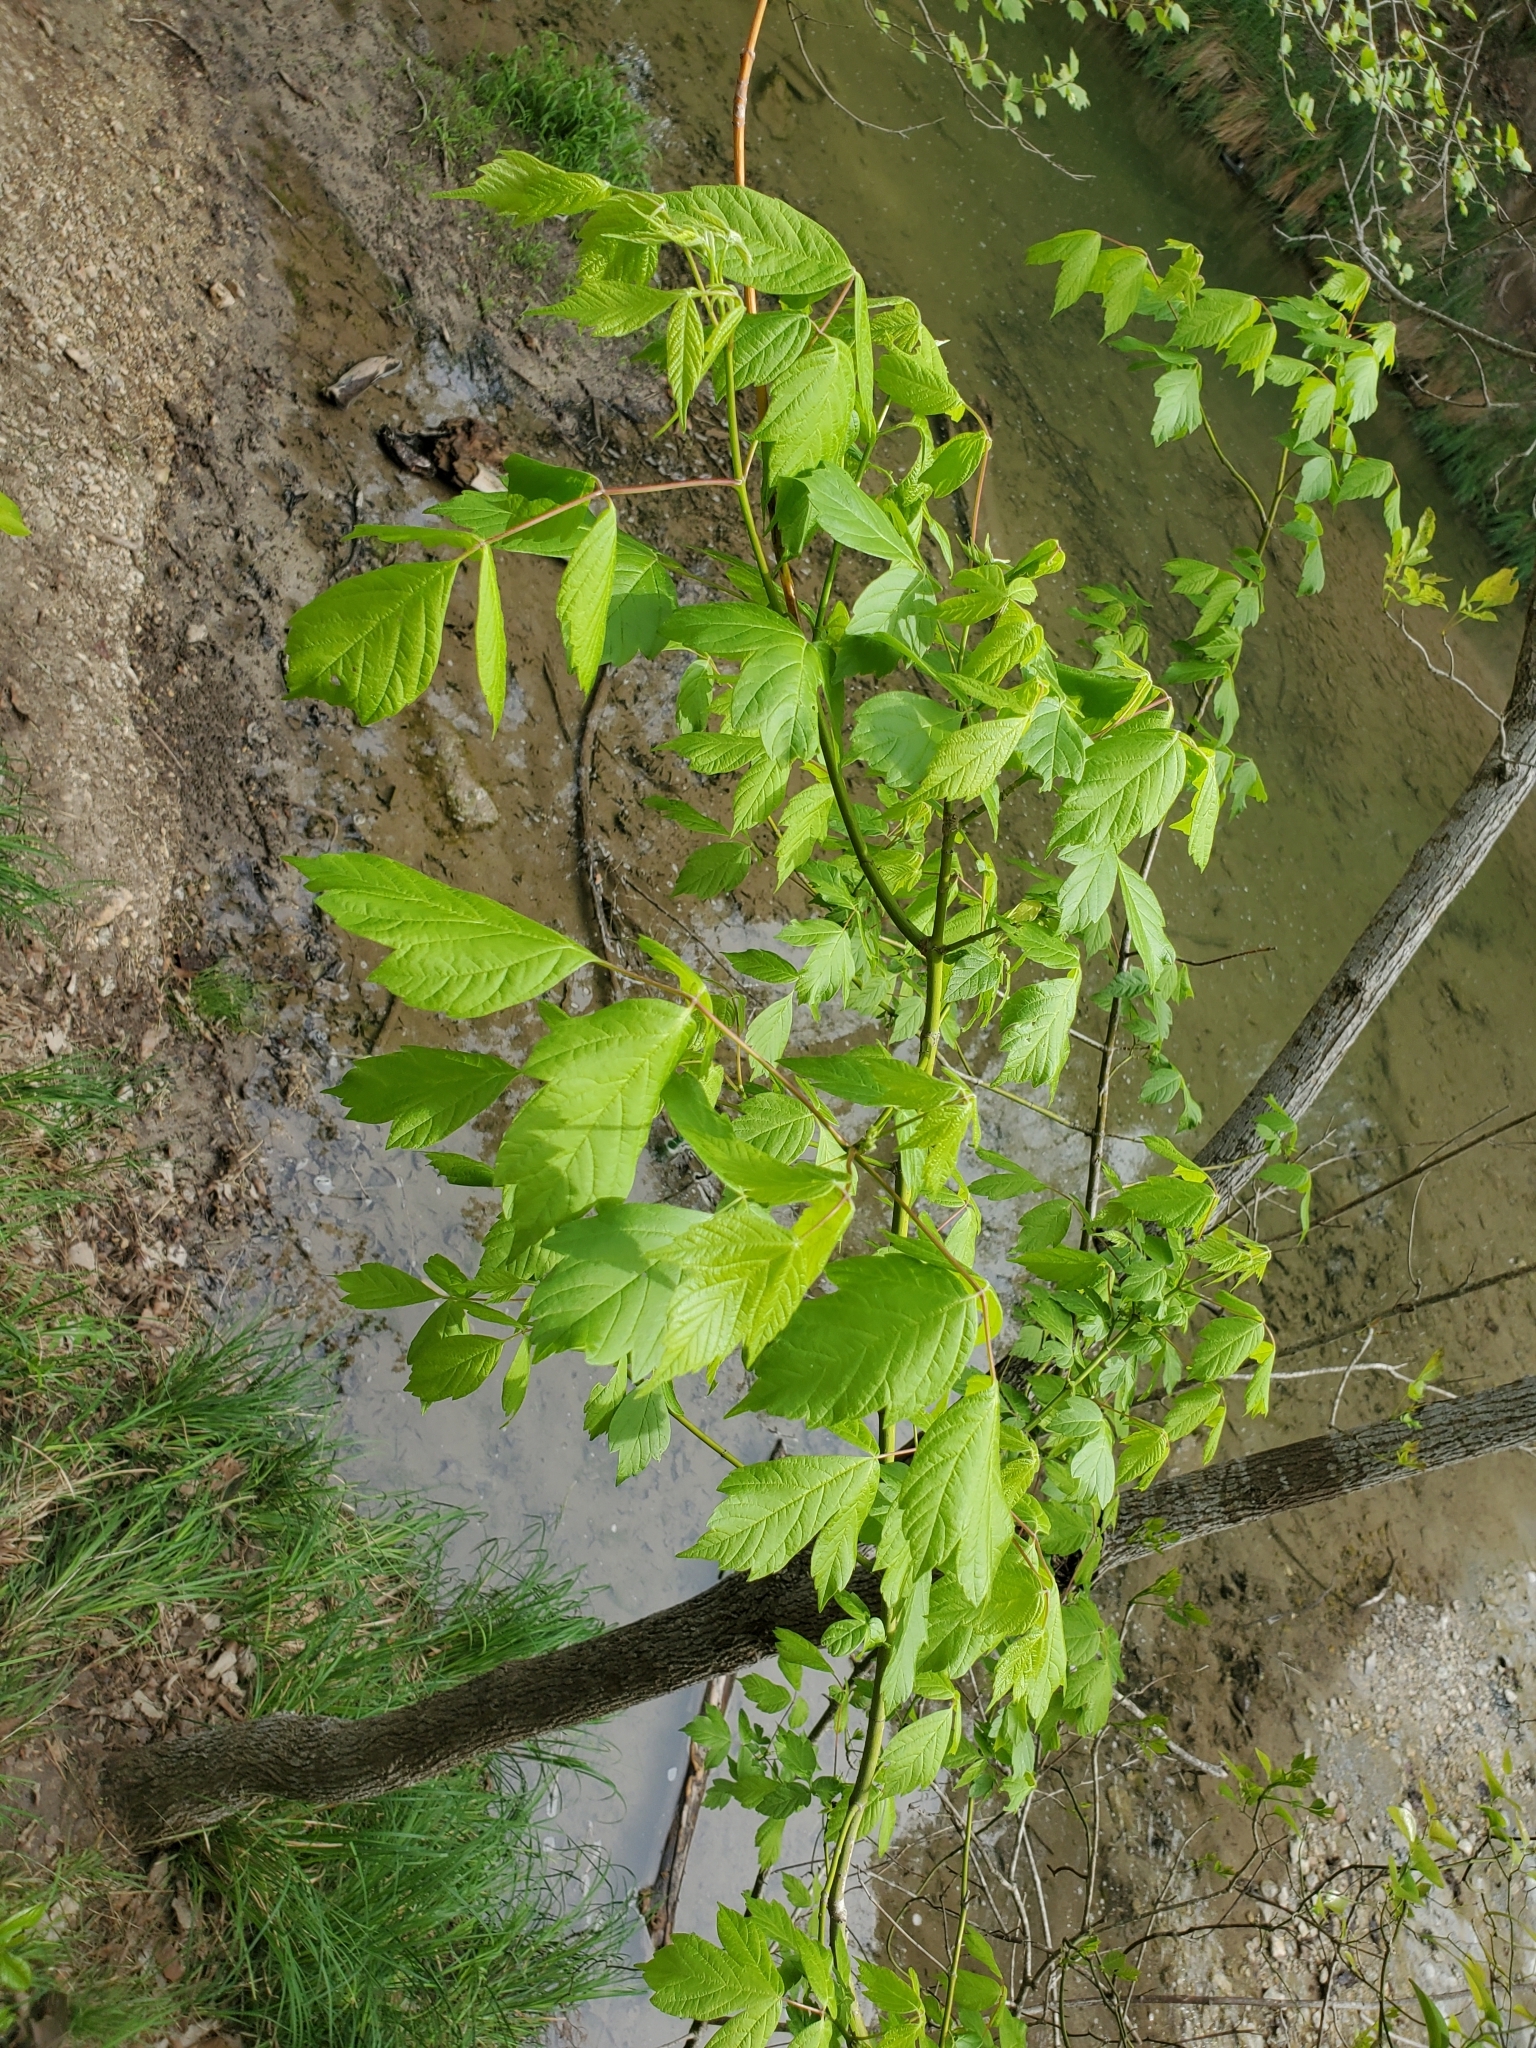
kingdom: Plantae
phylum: Tracheophyta
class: Magnoliopsida
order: Sapindales
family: Sapindaceae
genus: Acer
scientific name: Acer negundo
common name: Ashleaf maple
